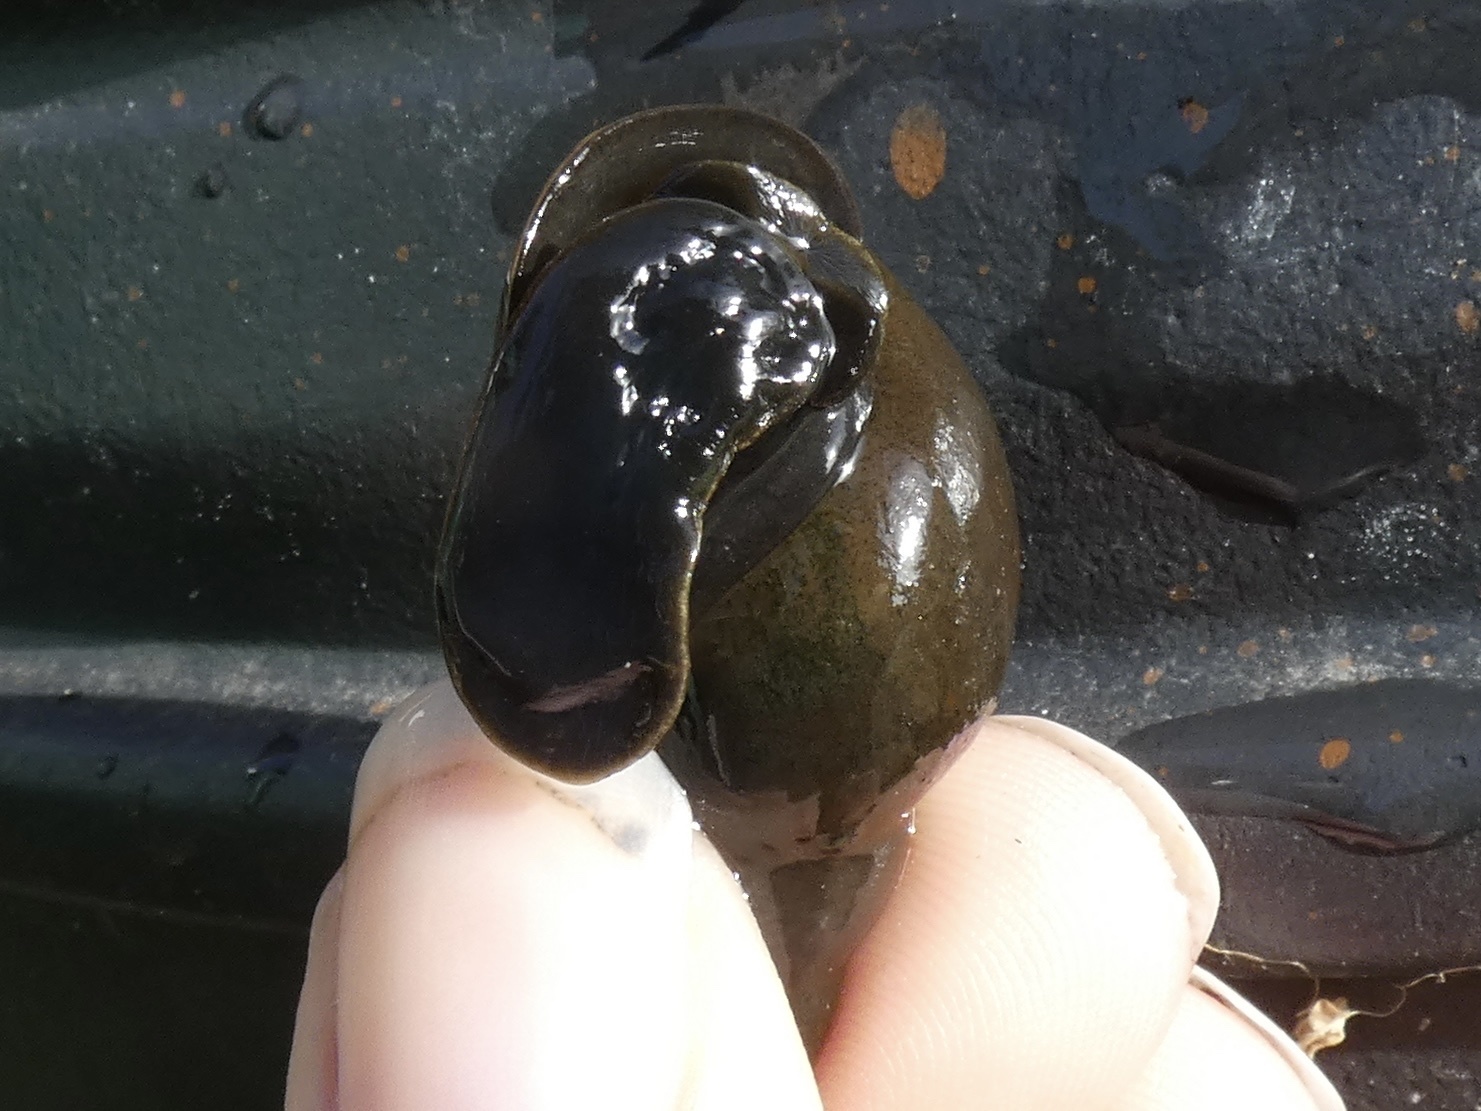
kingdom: Animalia
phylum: Mollusca
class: Gastropoda
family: Lymnaeidae
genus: Lymnaea
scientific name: Lymnaea stagnalis
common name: Great pond snail
